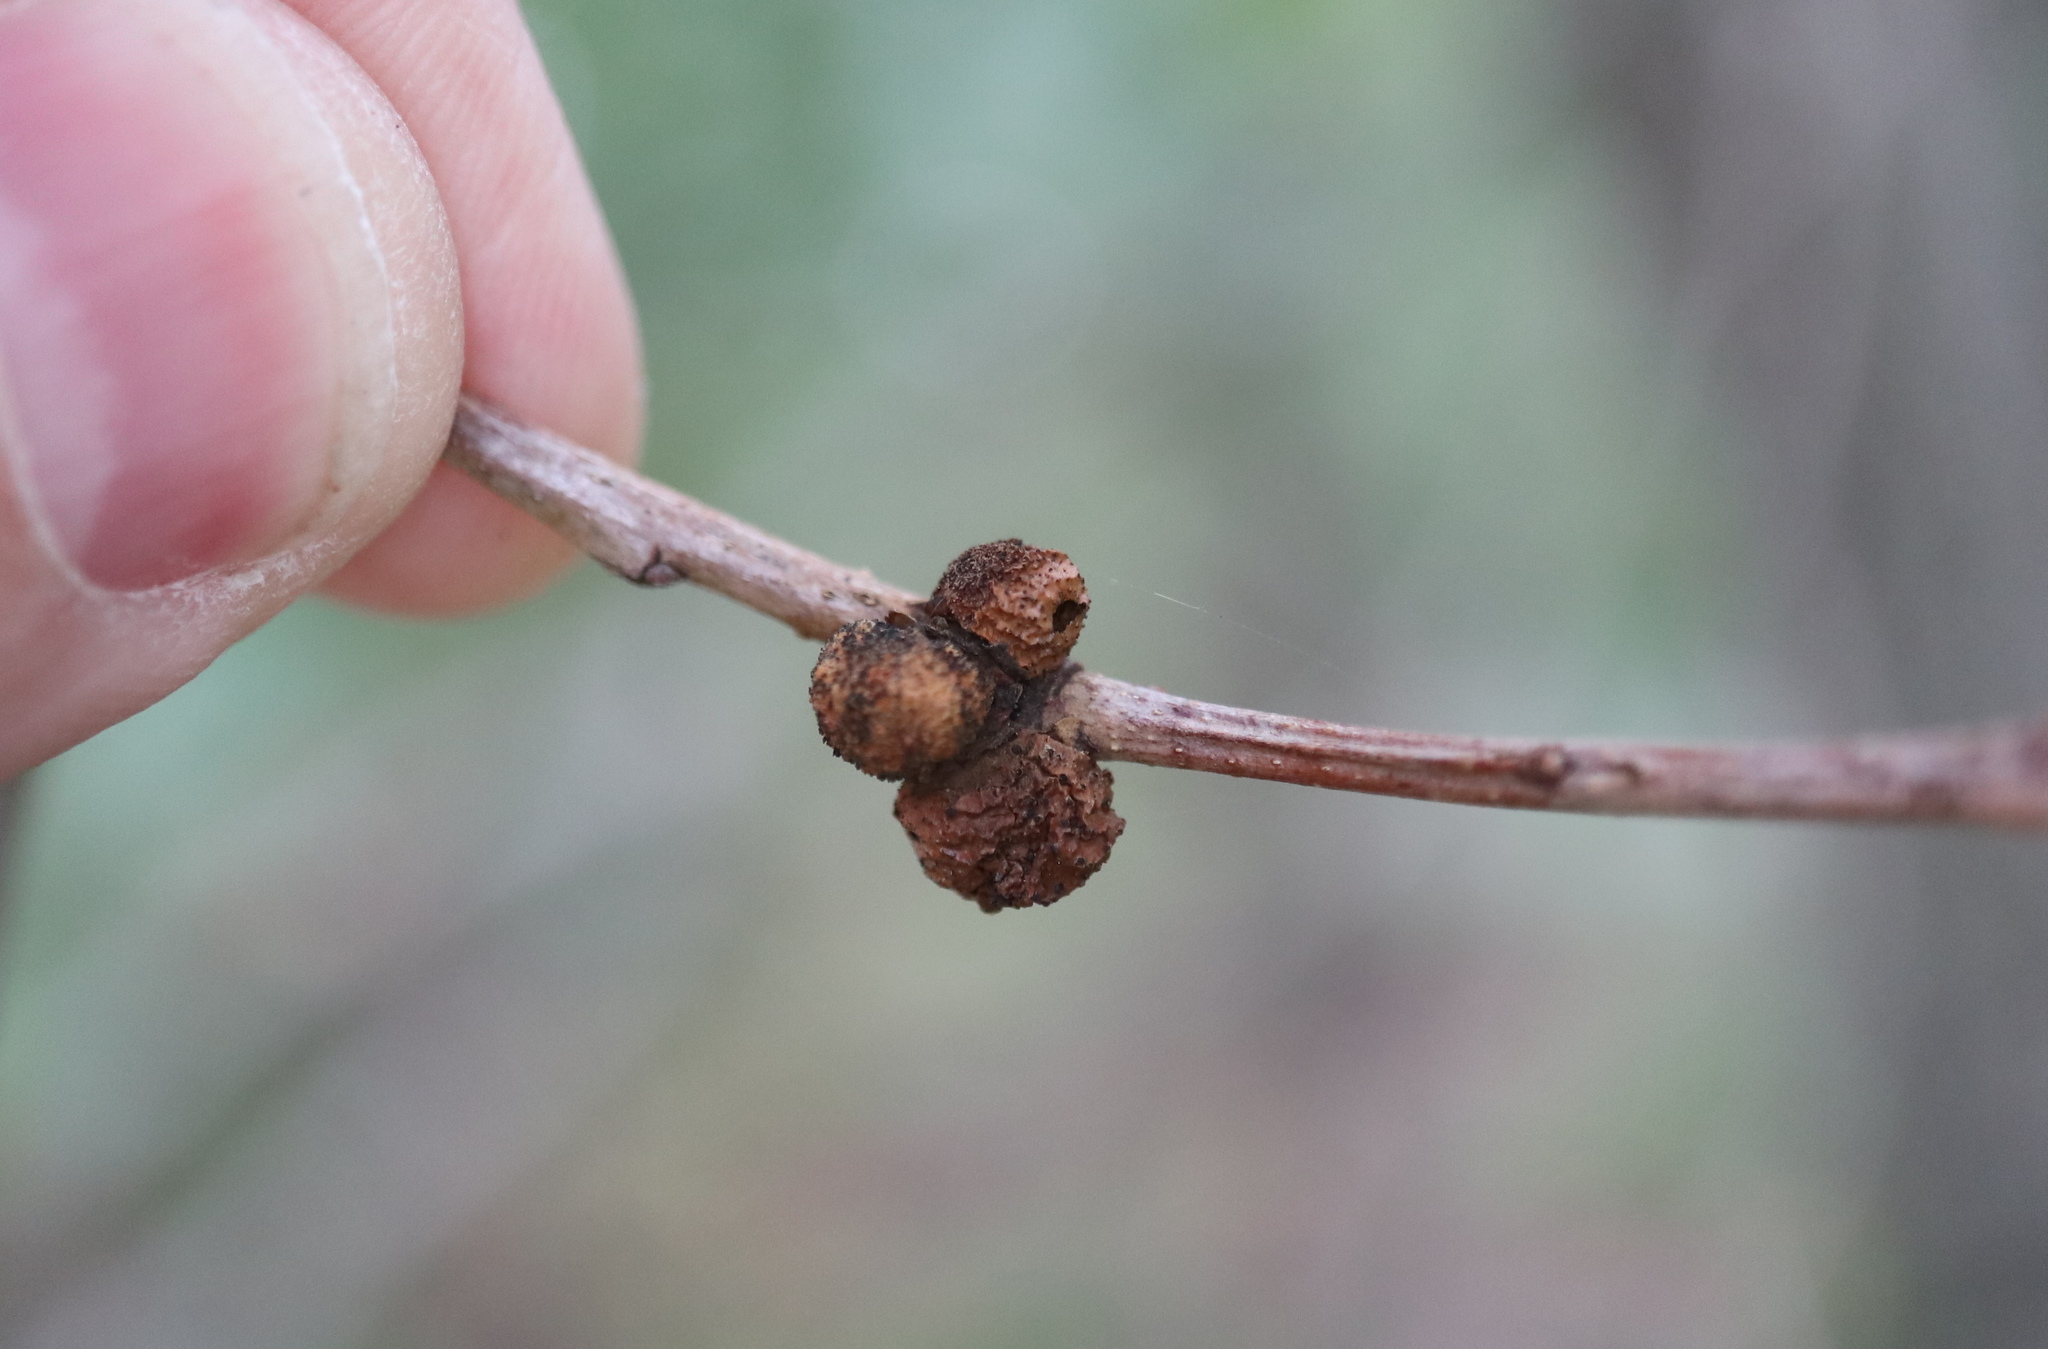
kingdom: Animalia
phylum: Arthropoda
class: Insecta
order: Hymenoptera
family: Cynipidae
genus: Disholcaspis
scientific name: Disholcaspis quercusglobulus
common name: Round bullet gall wasp
